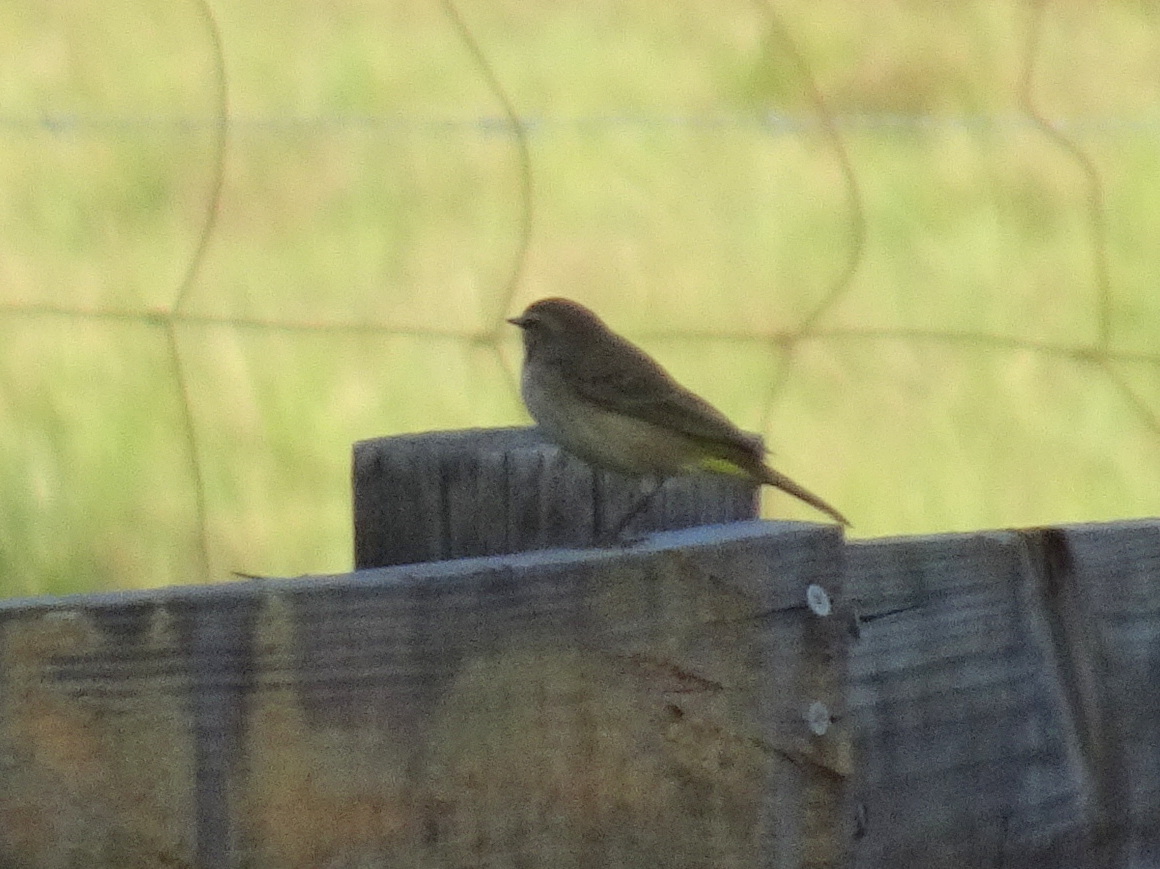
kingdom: Animalia
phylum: Chordata
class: Aves
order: Passeriformes
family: Parulidae
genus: Setophaga
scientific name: Setophaga palmarum
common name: Palm warbler
